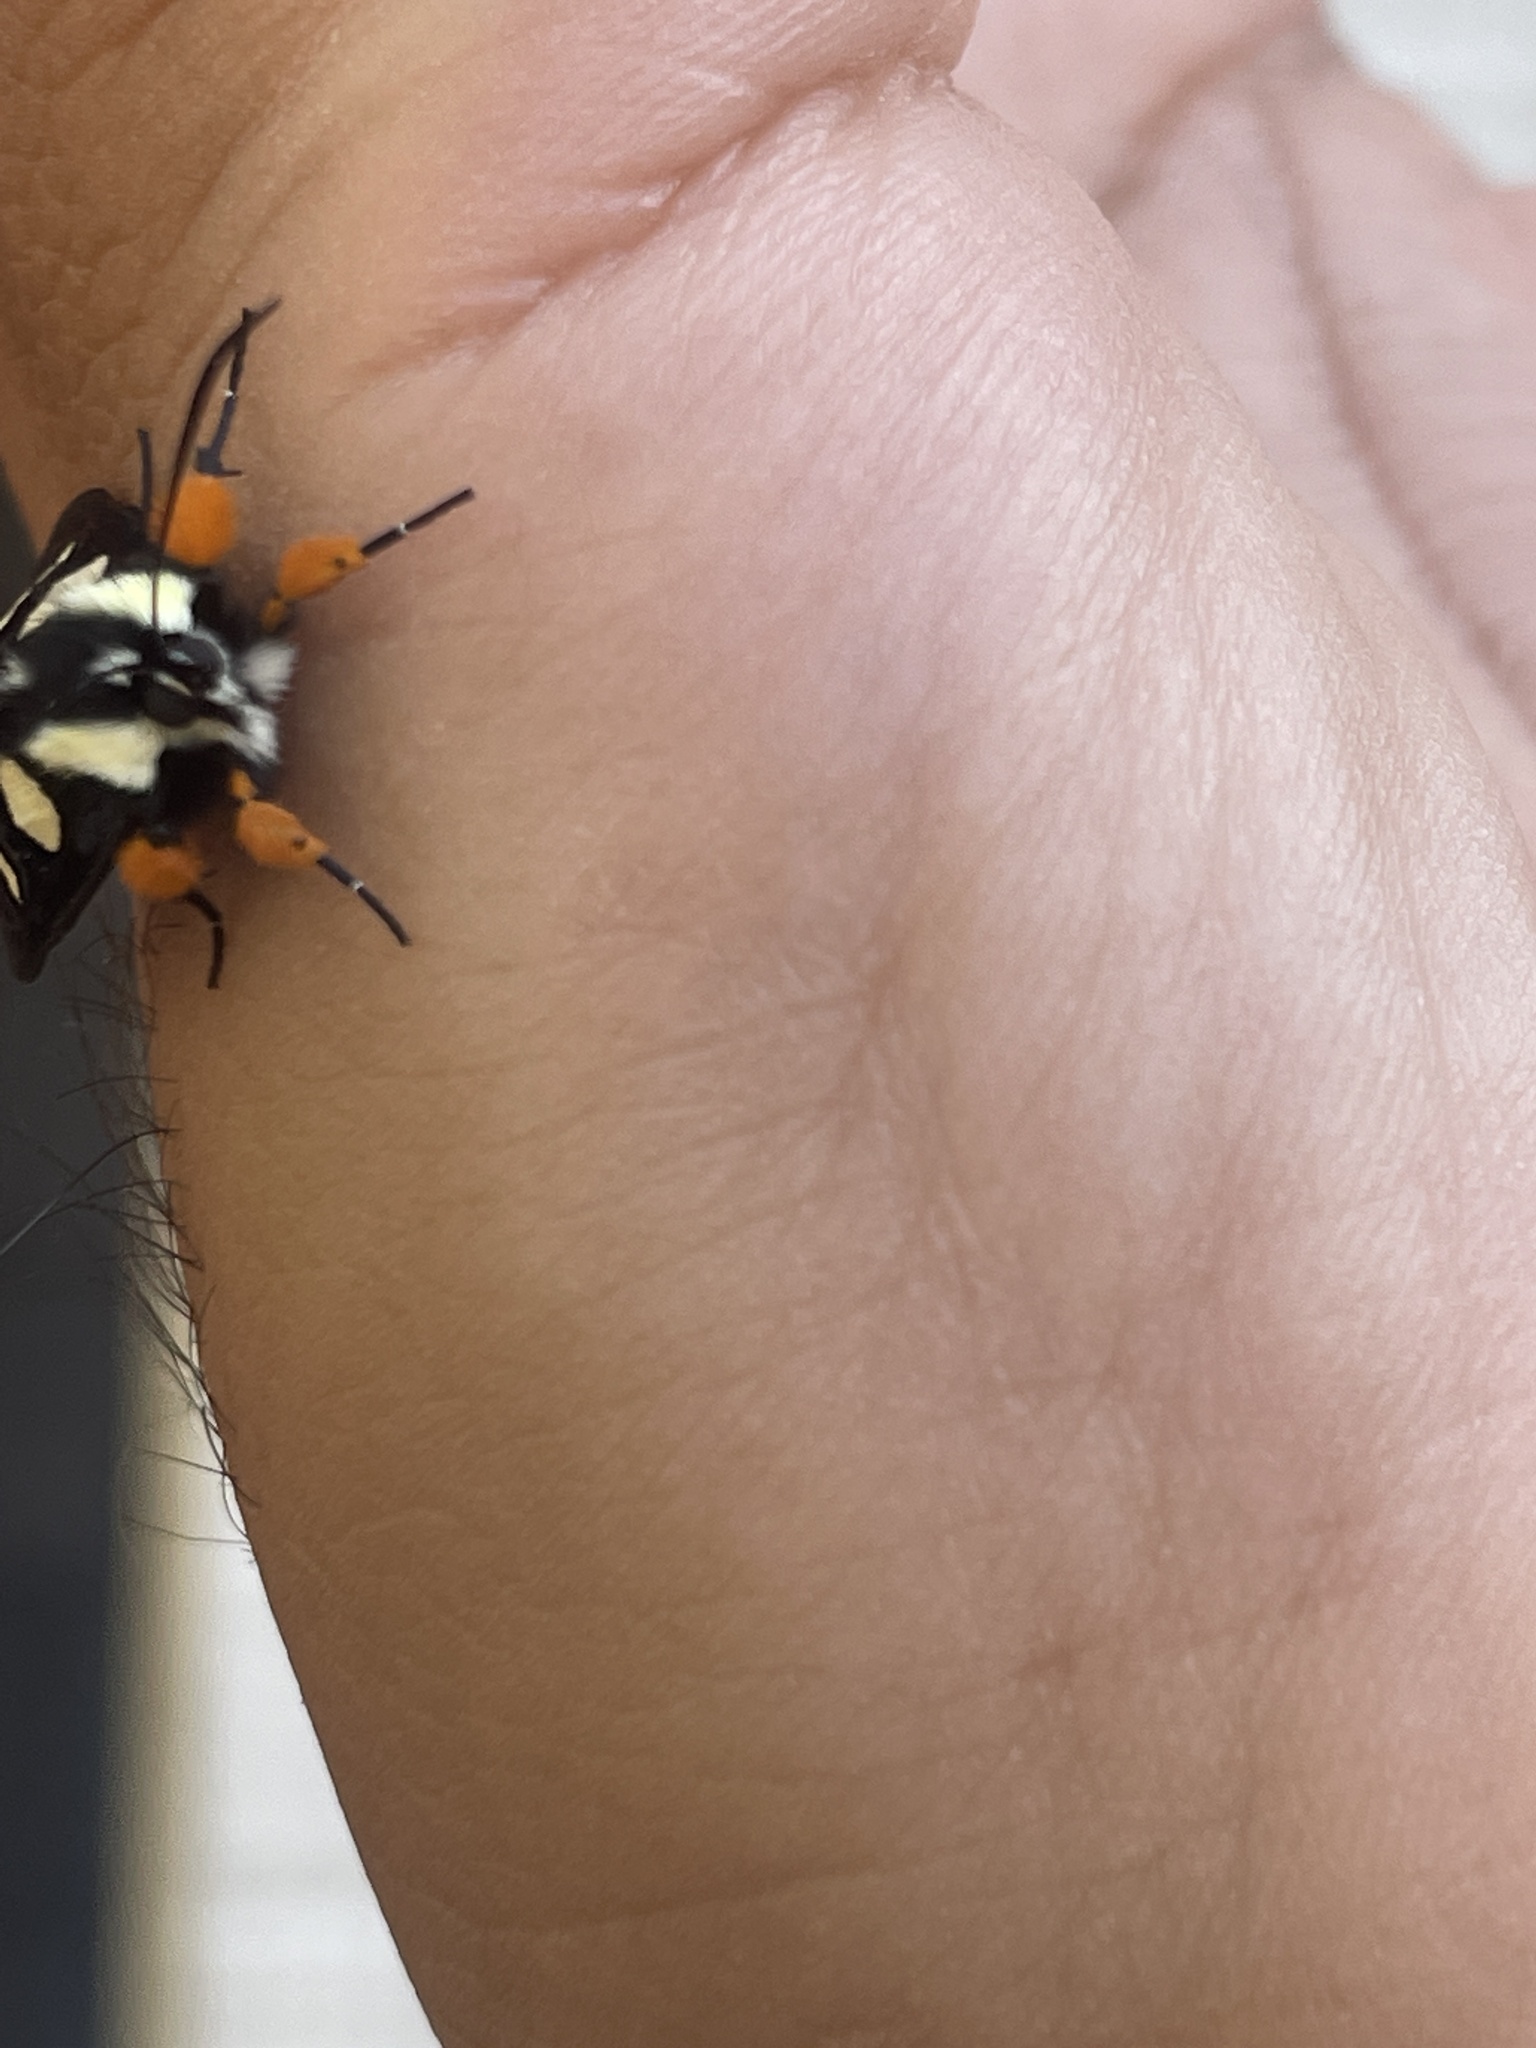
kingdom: Animalia
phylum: Arthropoda
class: Insecta
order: Lepidoptera
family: Noctuidae
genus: Alypia
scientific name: Alypia octomaculata
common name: Eight-spotted forester
